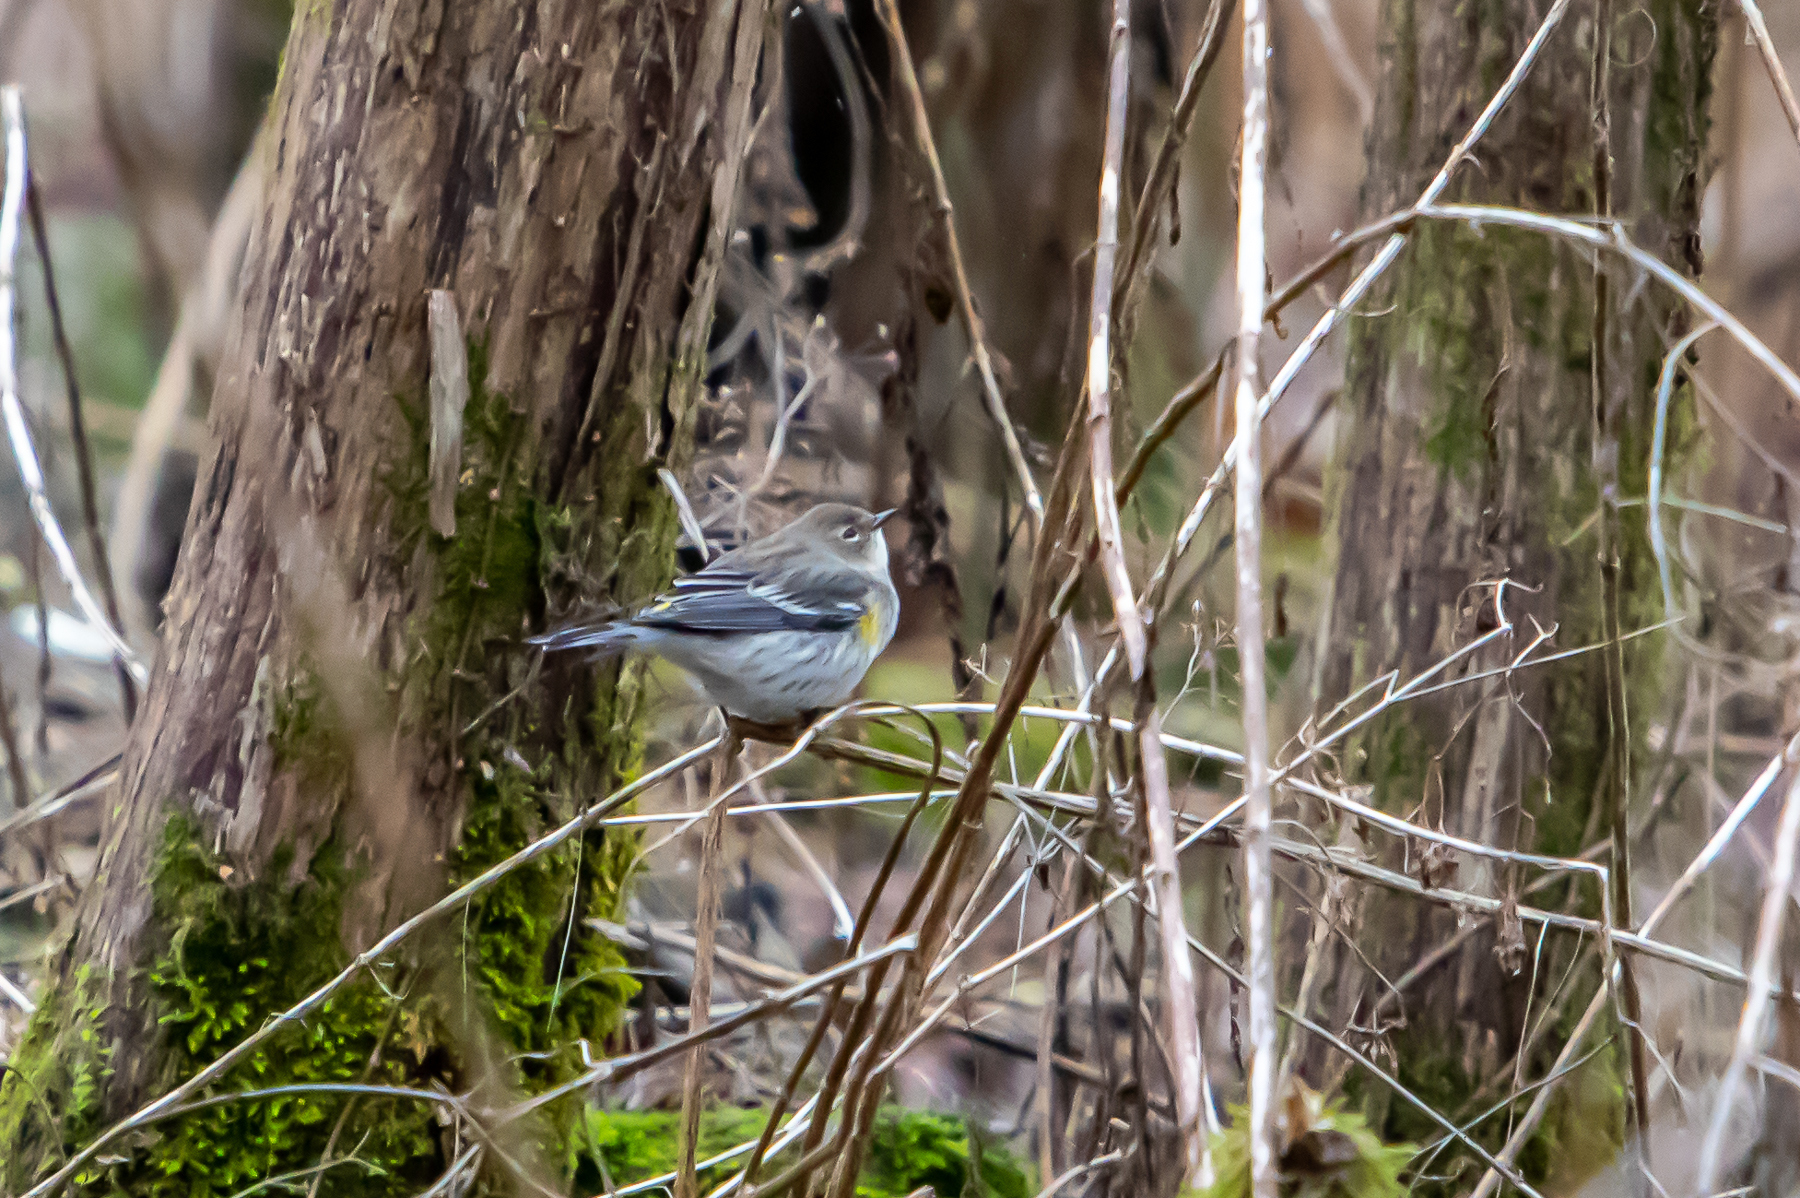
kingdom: Animalia
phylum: Chordata
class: Aves
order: Passeriformes
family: Parulidae
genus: Setophaga
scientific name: Setophaga coronata
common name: Myrtle warbler
